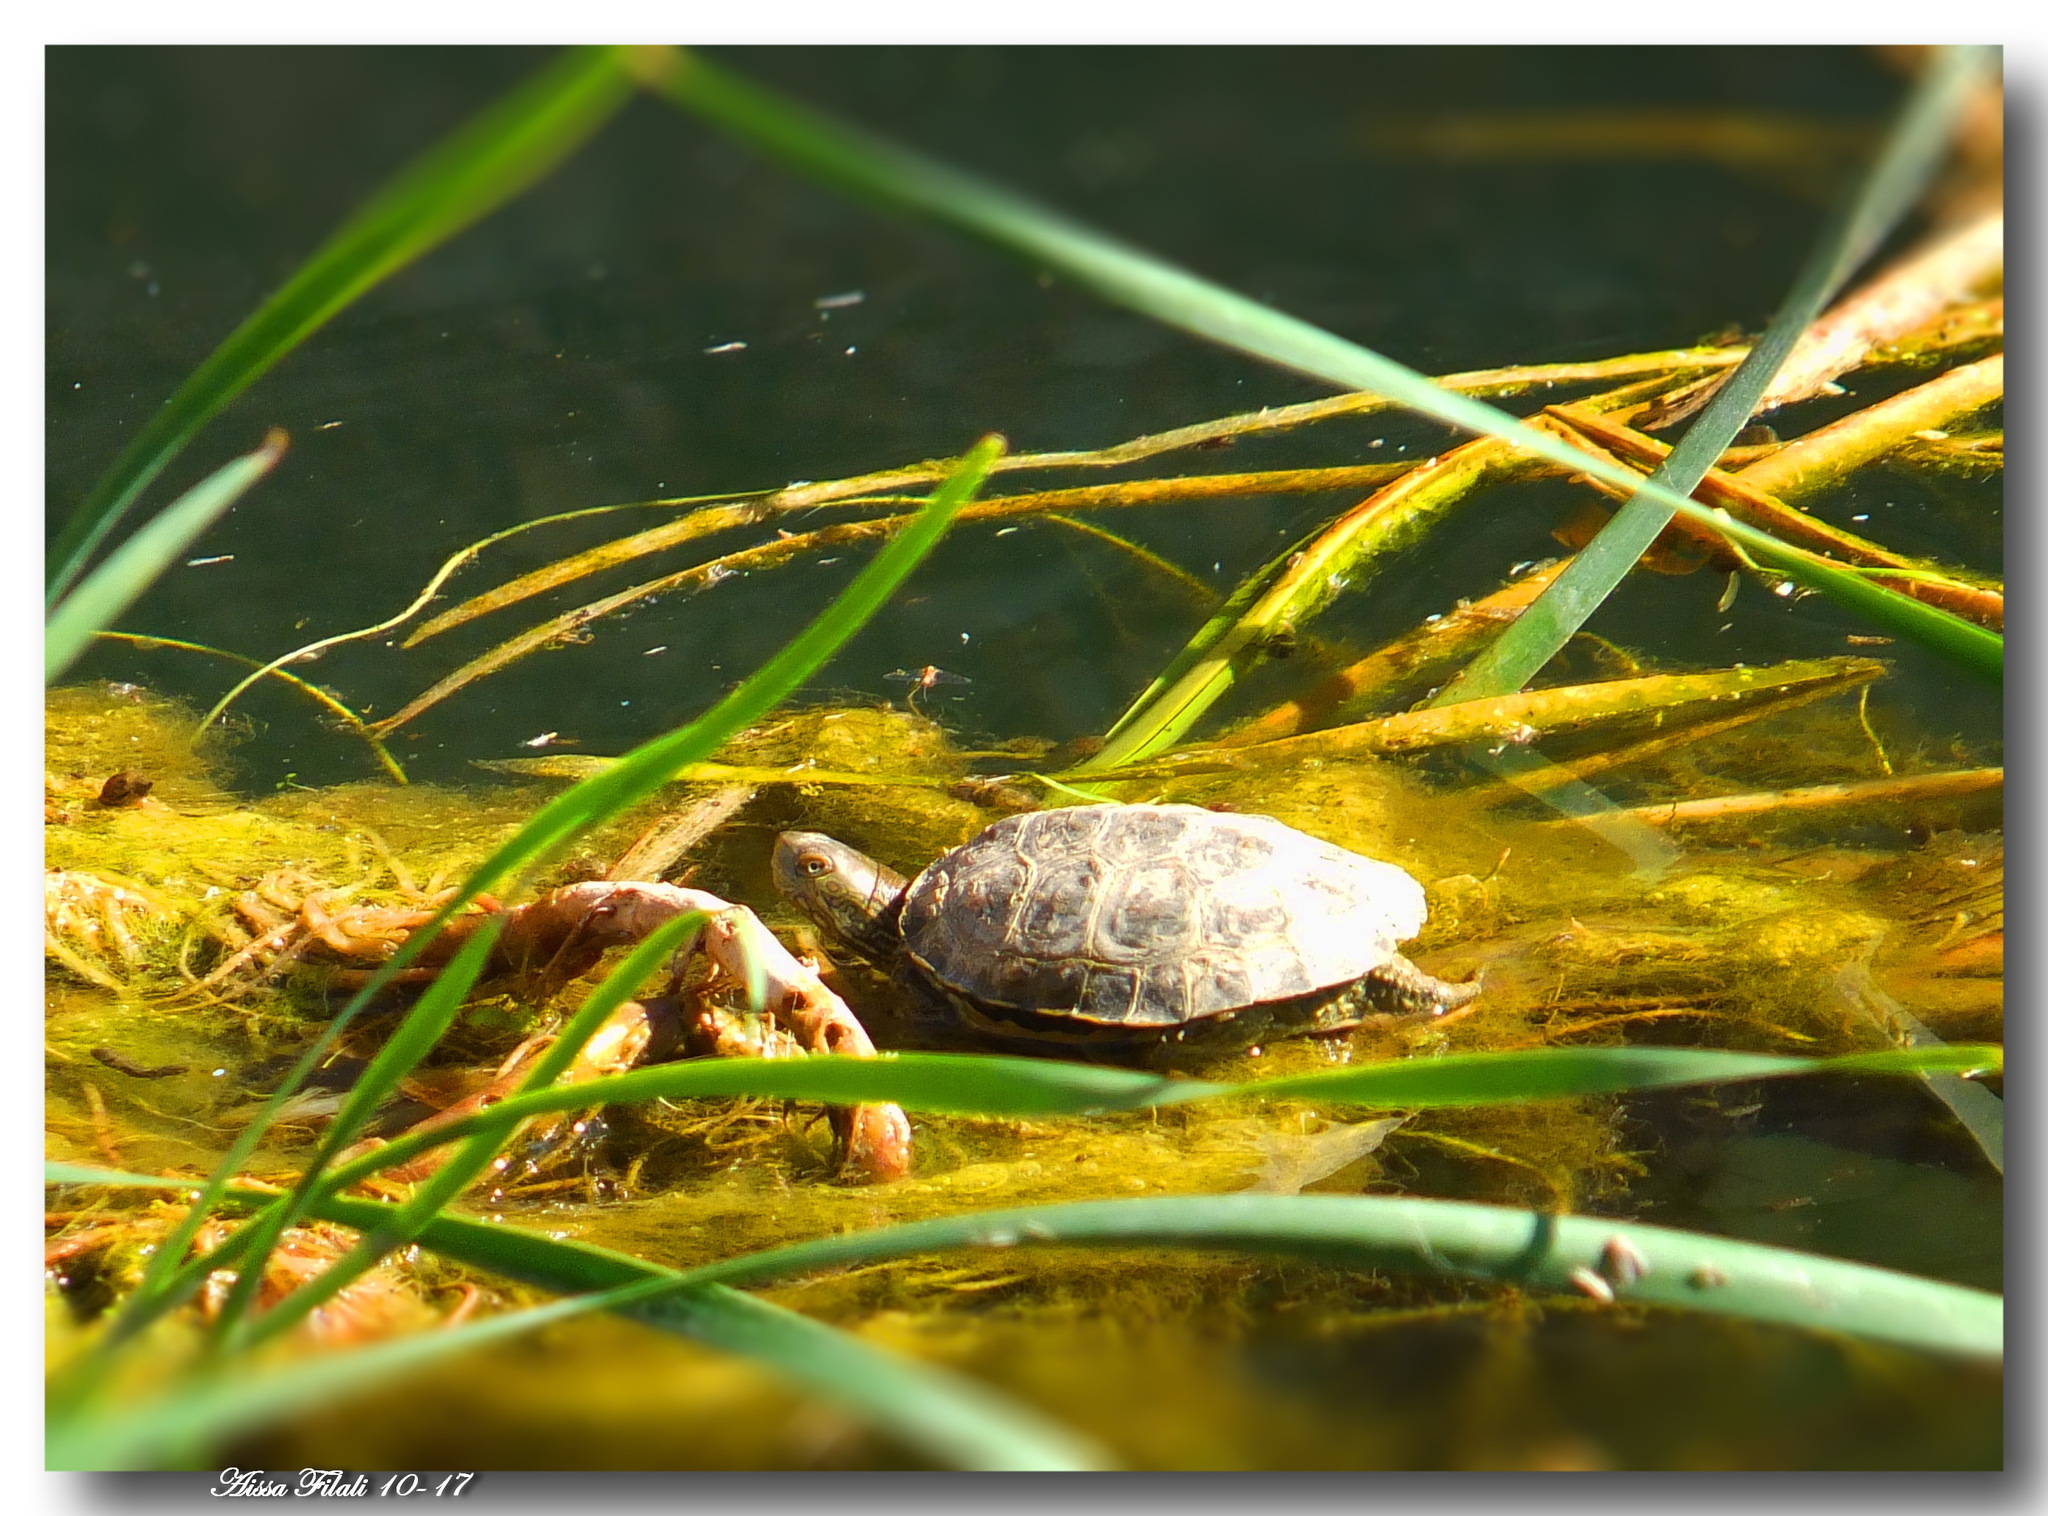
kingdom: Animalia
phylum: Chordata
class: Testudines
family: Geoemydidae
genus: Mauremys
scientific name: Mauremys leprosa
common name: Mediterranean pond turtle
